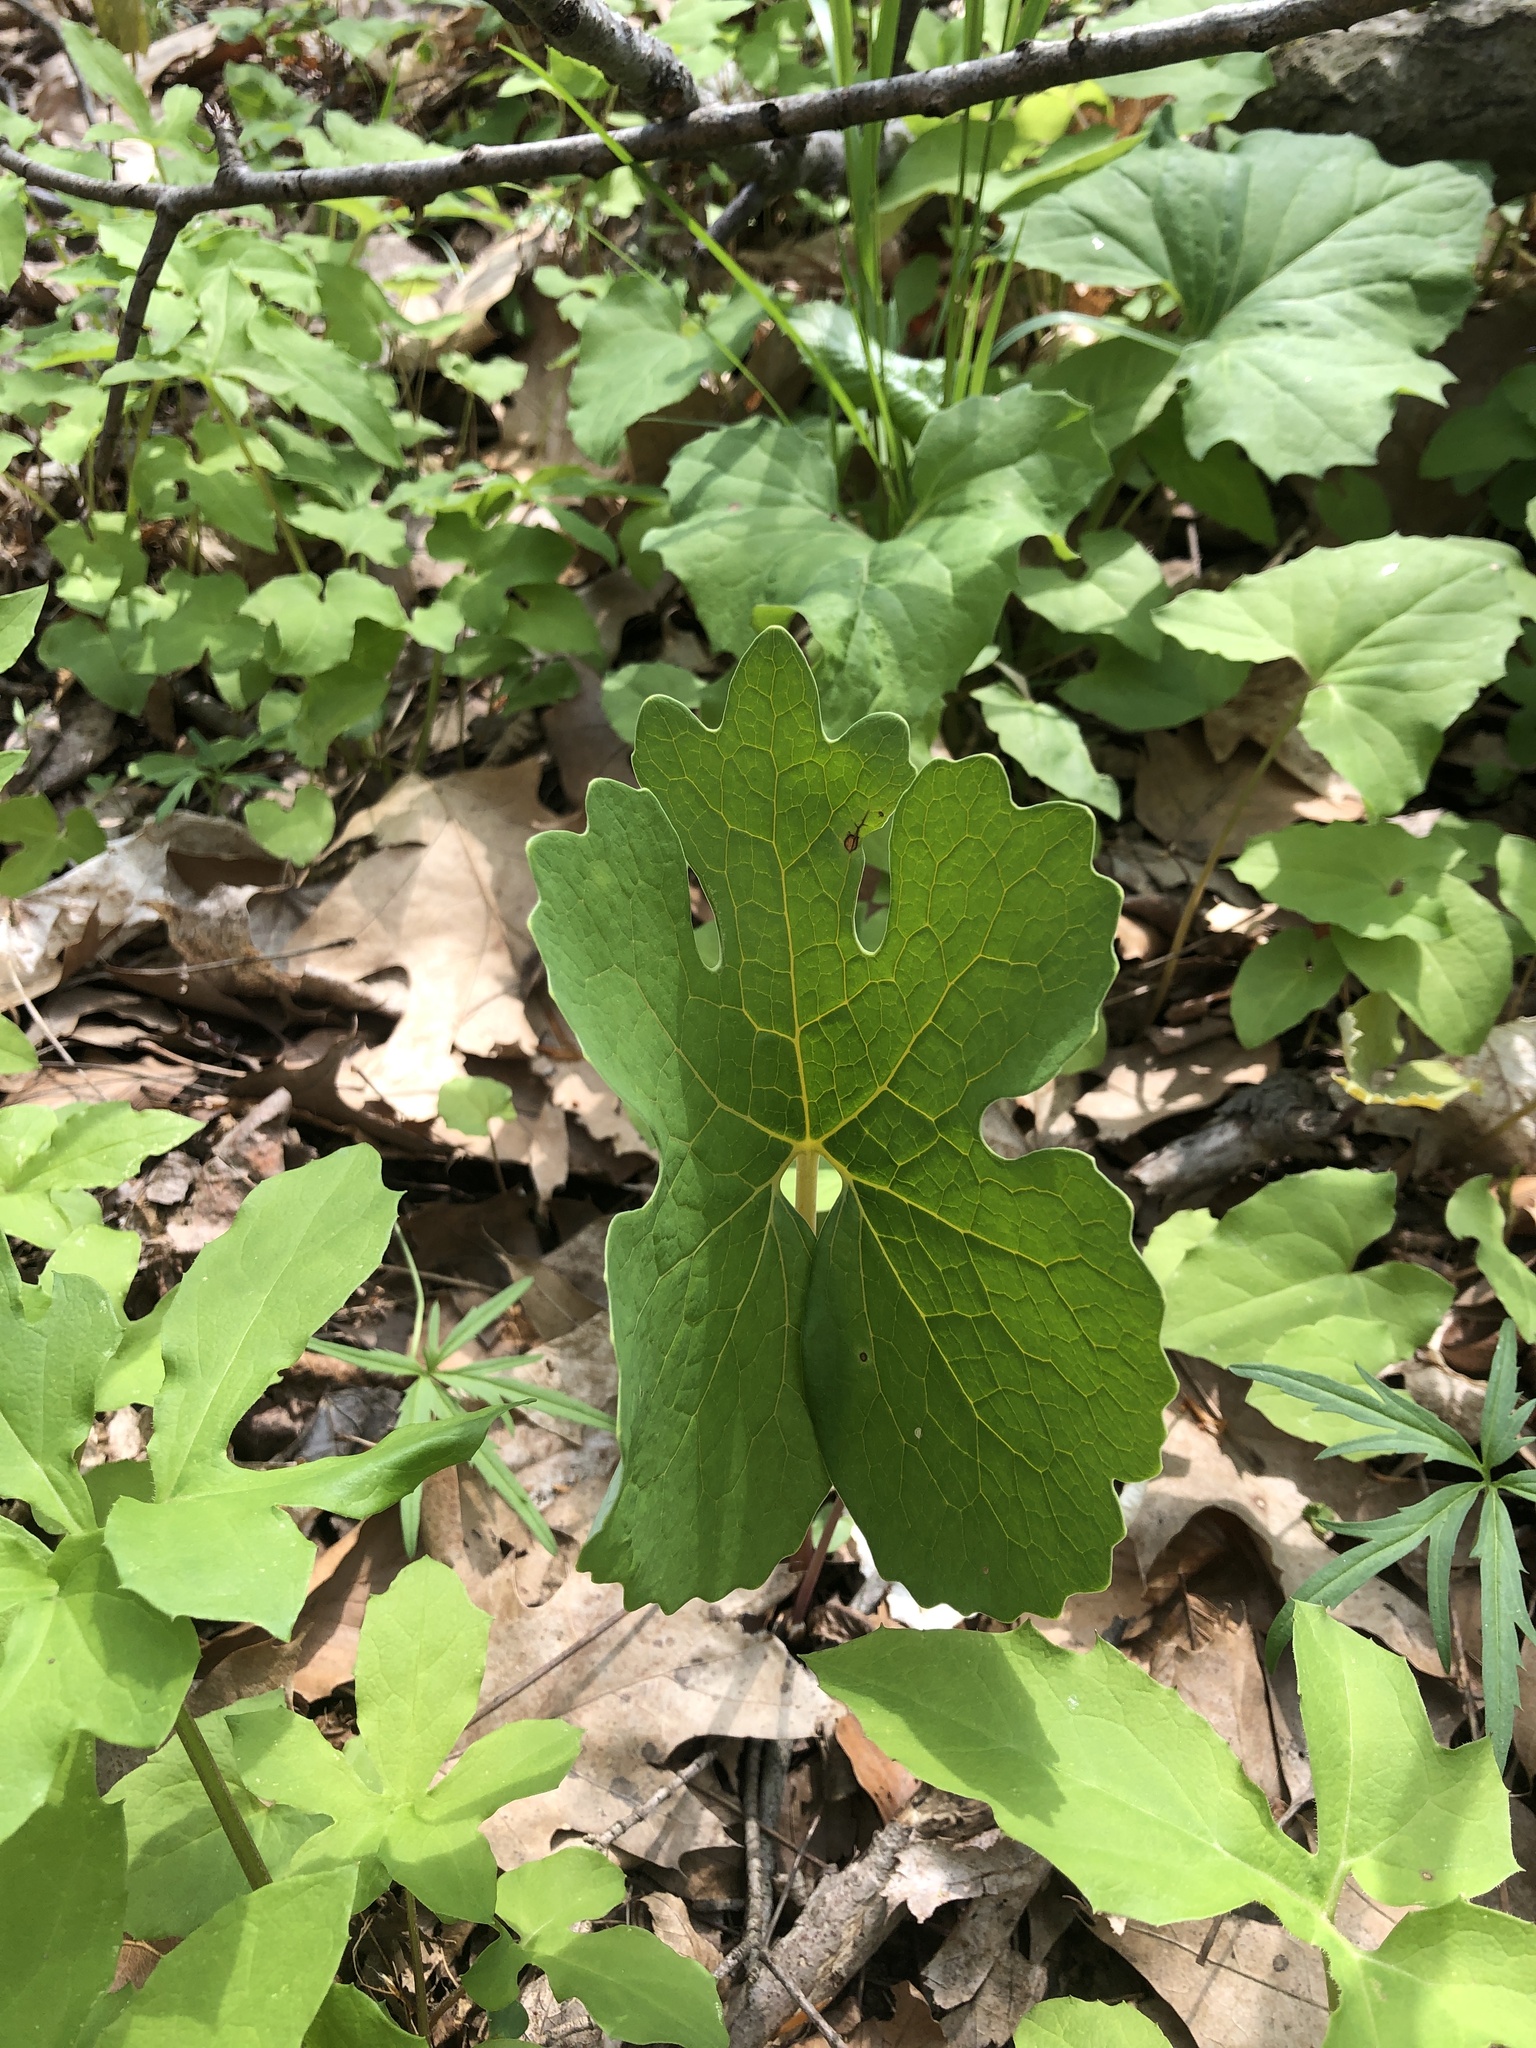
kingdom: Plantae
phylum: Tracheophyta
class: Magnoliopsida
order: Ranunculales
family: Papaveraceae
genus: Sanguinaria
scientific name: Sanguinaria canadensis
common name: Bloodroot
